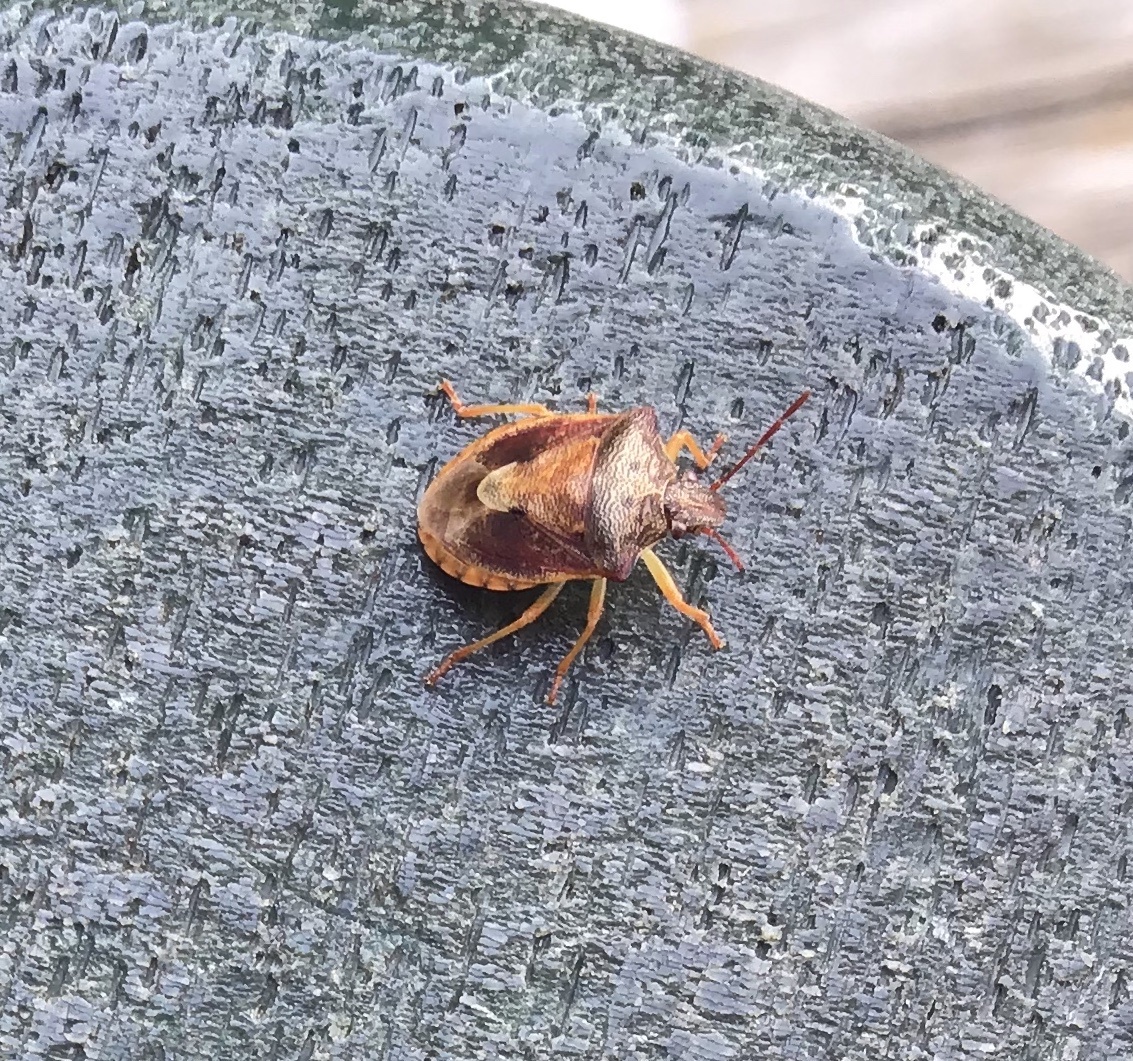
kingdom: Animalia
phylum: Arthropoda
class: Insecta
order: Hemiptera
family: Pentatomidae
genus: Dendrocoris
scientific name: Dendrocoris humeralis
